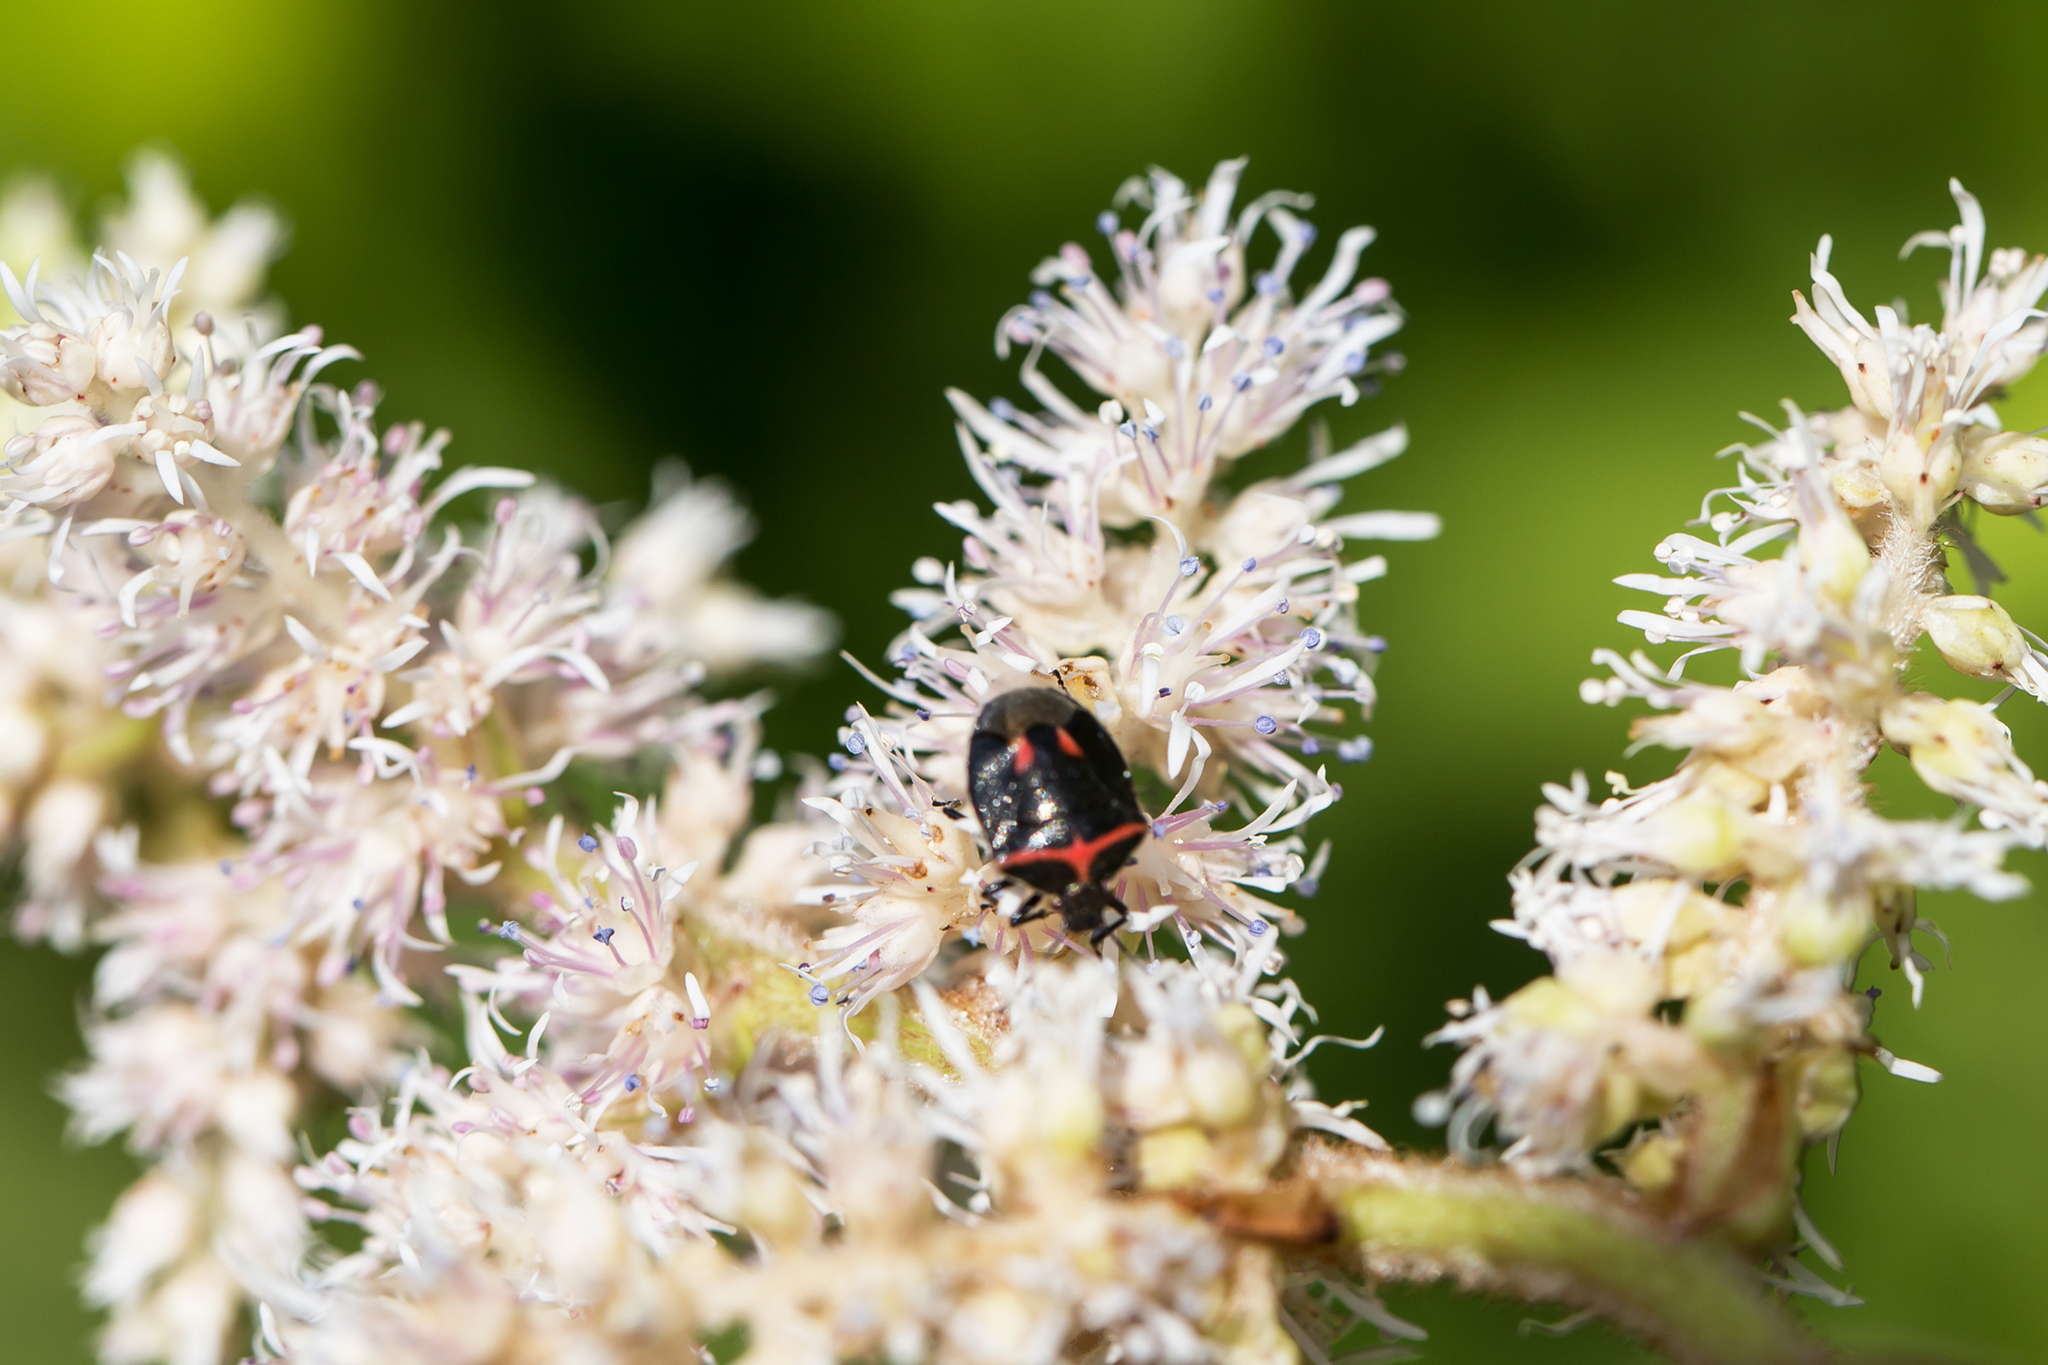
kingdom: Animalia
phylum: Arthropoda
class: Insecta
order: Hemiptera
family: Pentatomidae
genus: Cosmopepla
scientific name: Cosmopepla lintneriana
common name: Twice-stabbed stink bug
